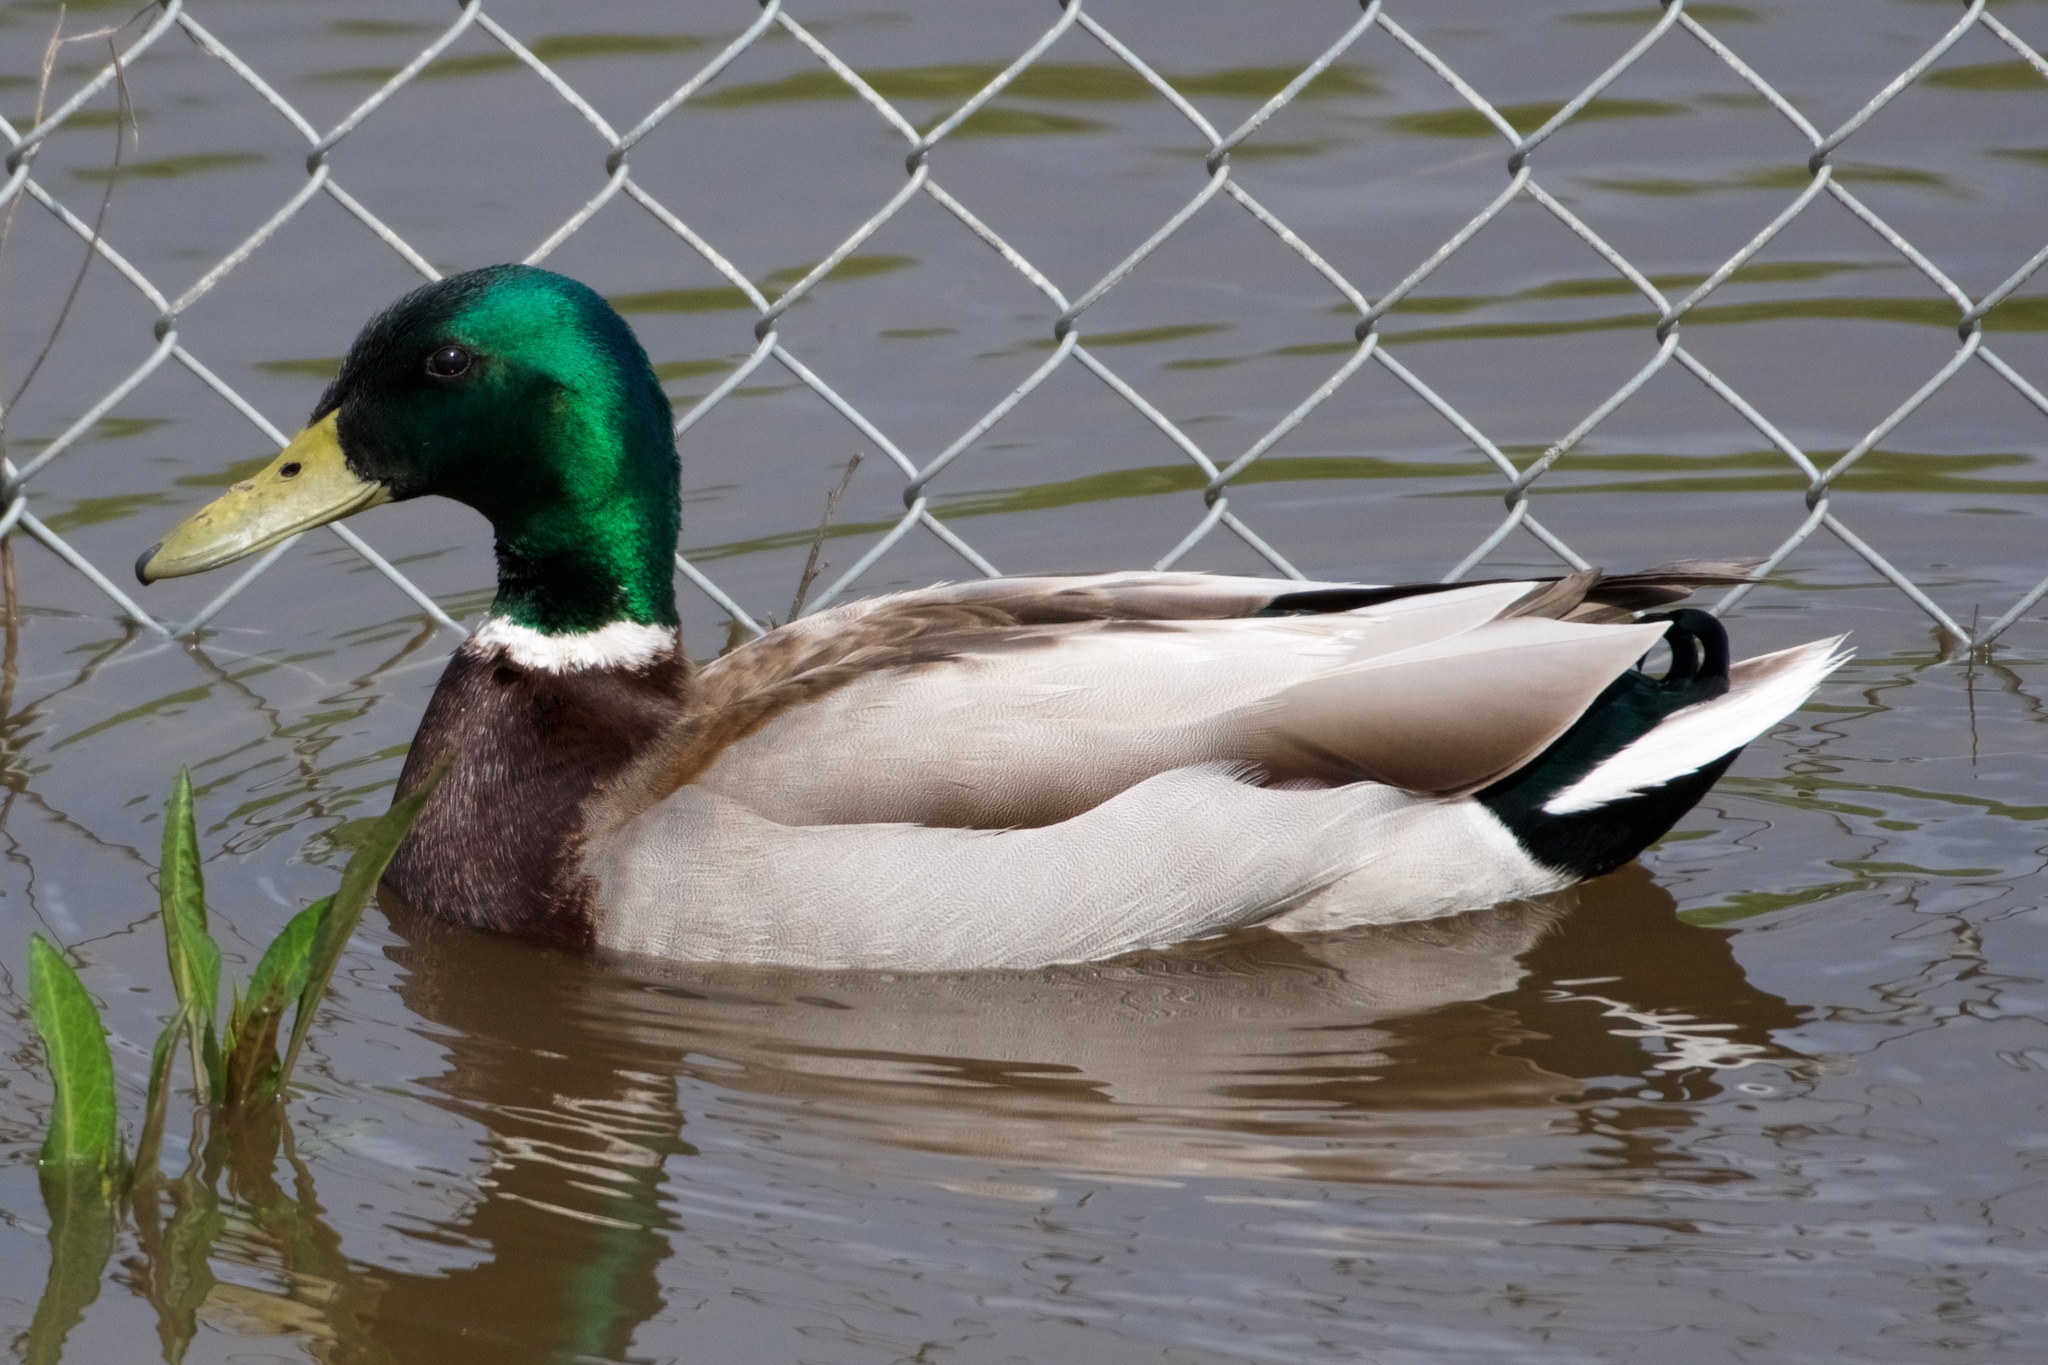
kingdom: Animalia
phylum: Chordata
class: Aves
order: Anseriformes
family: Anatidae
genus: Anas
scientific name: Anas platyrhynchos
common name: Mallard
